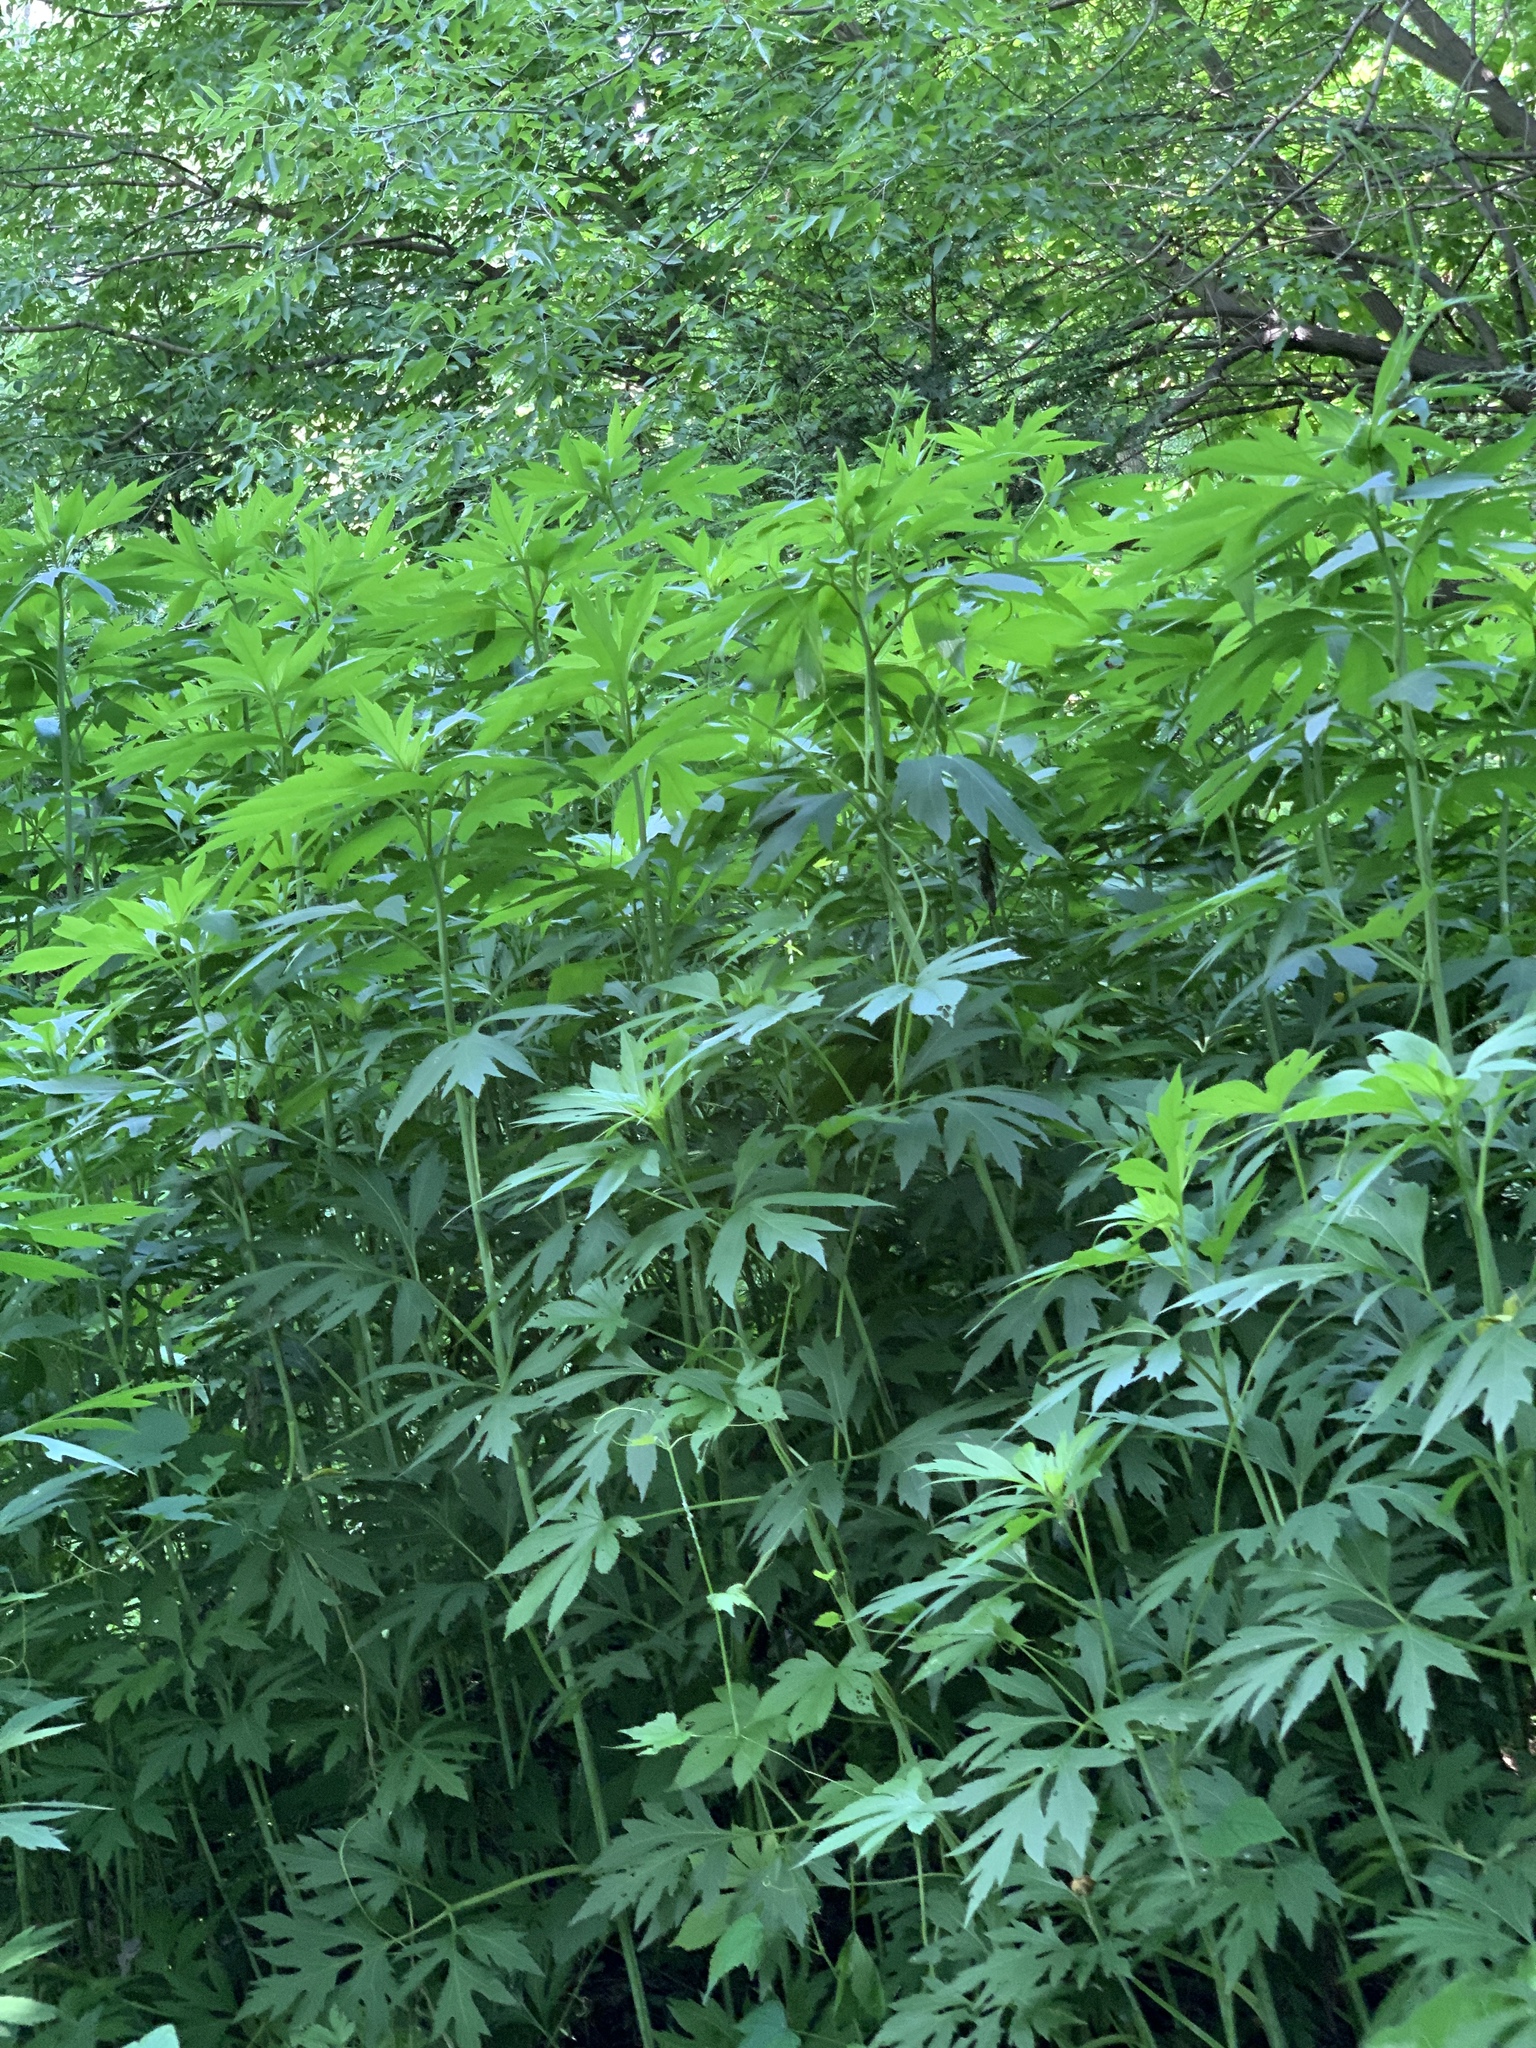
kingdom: Plantae
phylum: Tracheophyta
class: Magnoliopsida
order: Asterales
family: Asteraceae
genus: Rudbeckia
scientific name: Rudbeckia laciniata
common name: Coneflower
